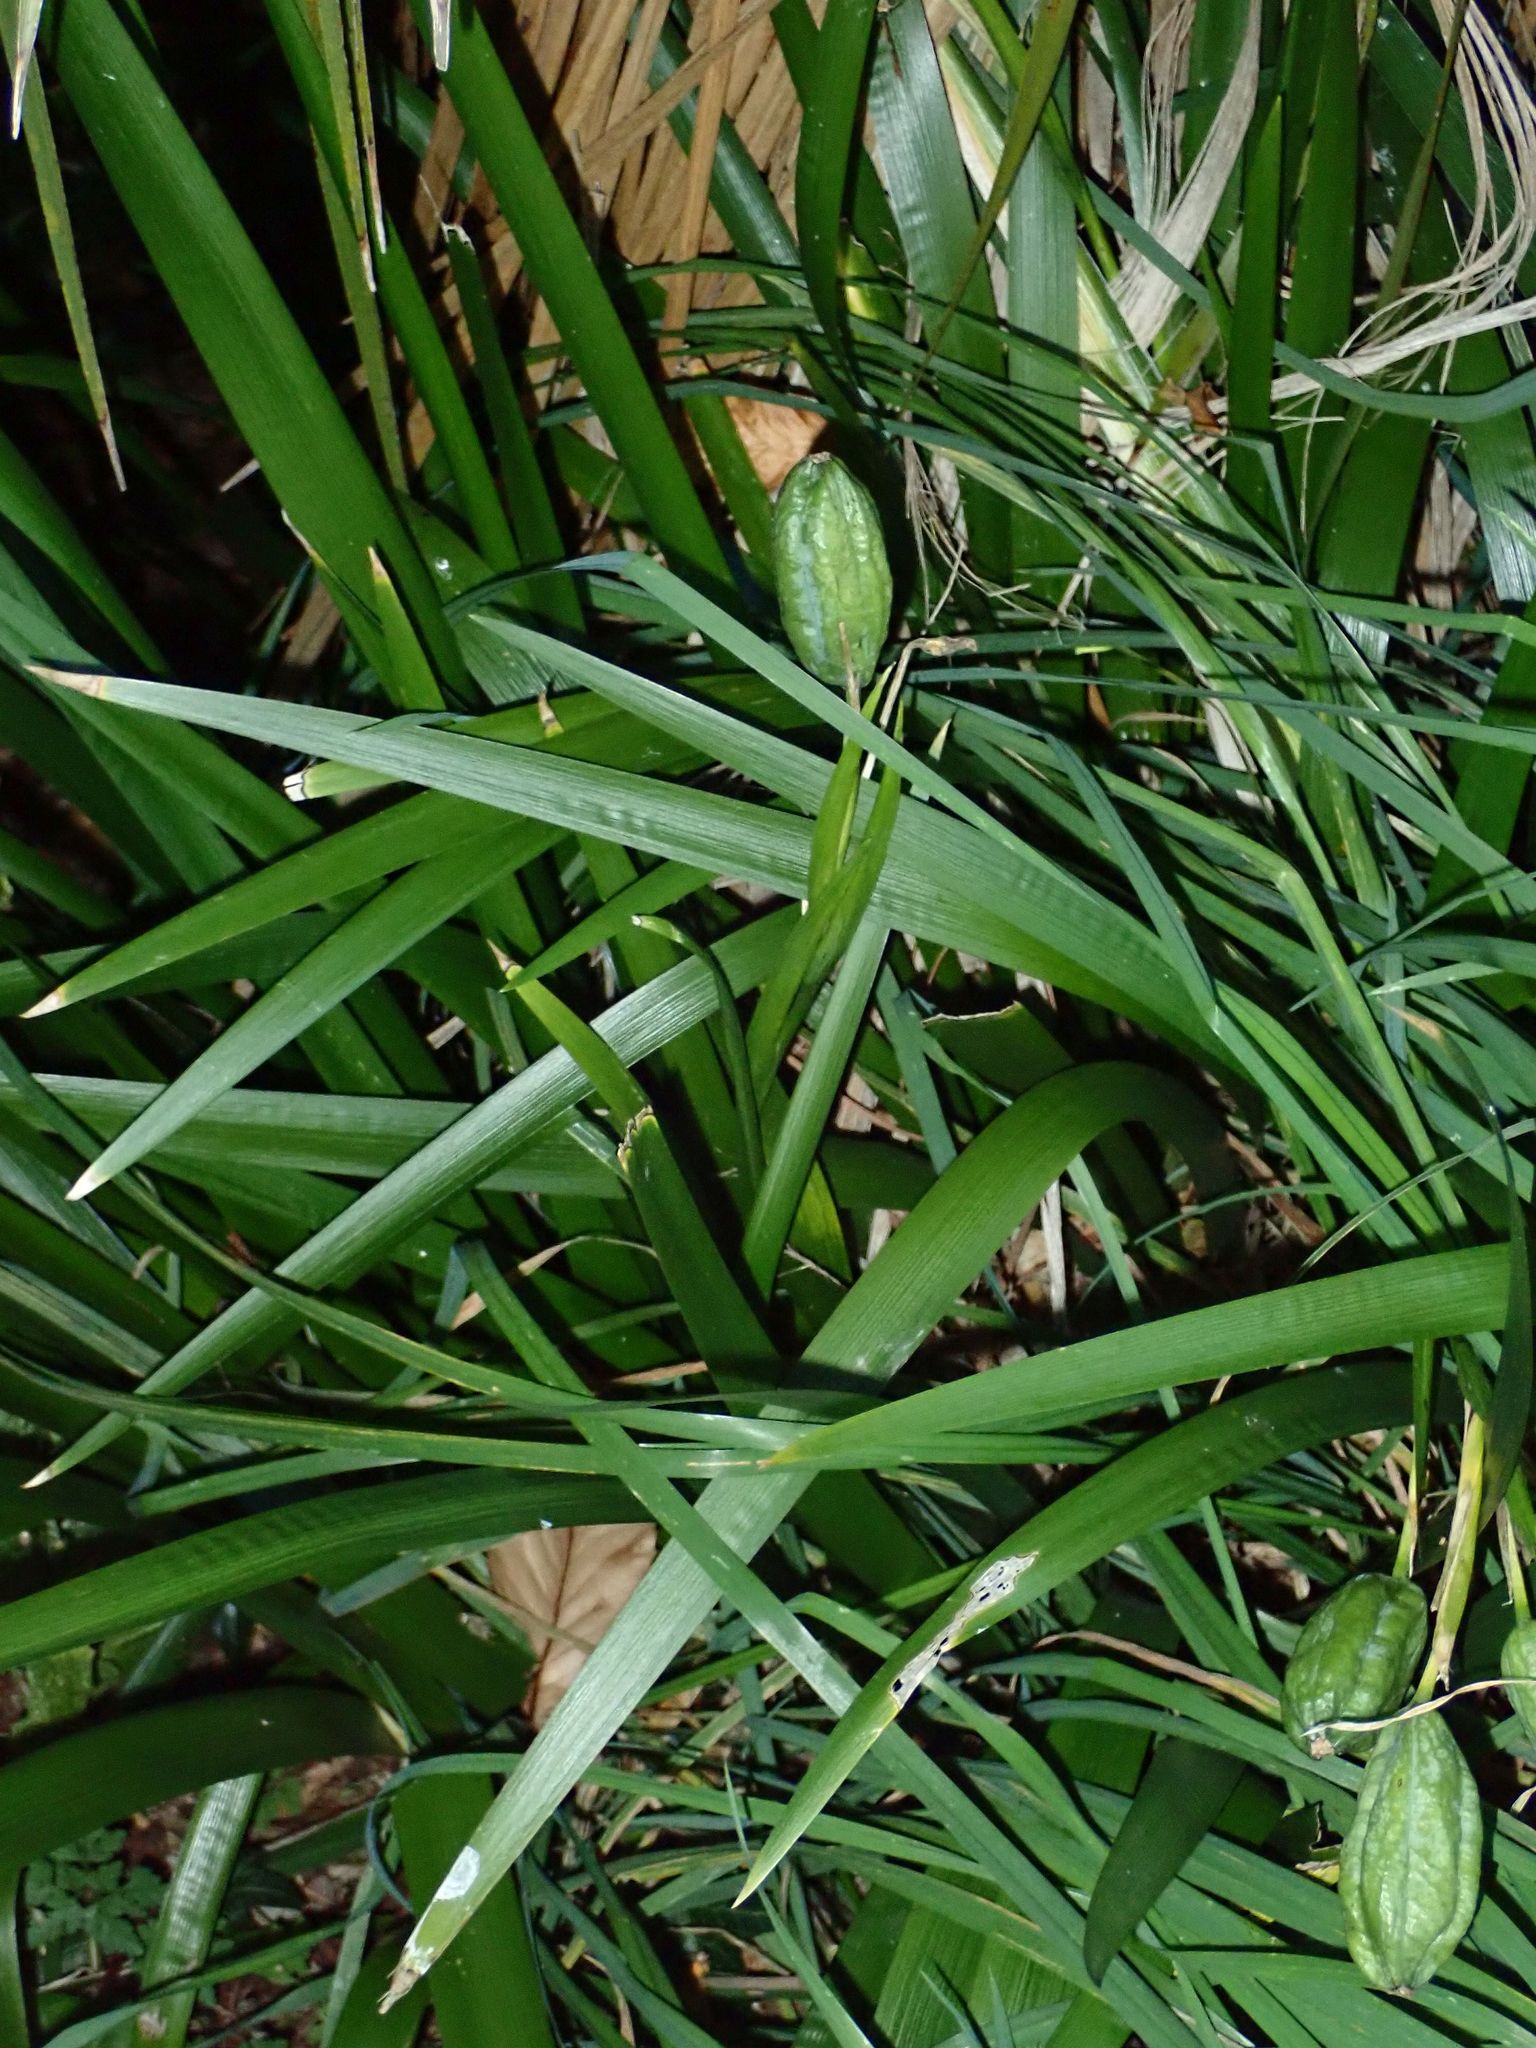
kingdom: Plantae
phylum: Tracheophyta
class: Liliopsida
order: Asparagales
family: Iridaceae
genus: Iris
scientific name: Iris foetidissima
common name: Stinking iris
